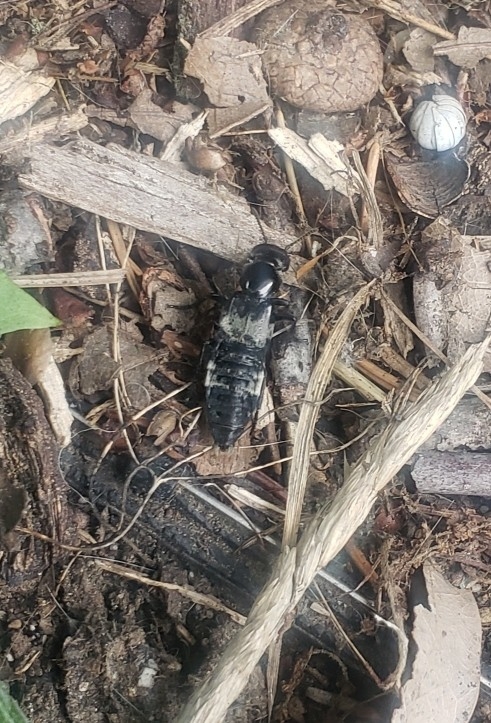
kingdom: Animalia
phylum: Arthropoda
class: Insecta
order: Coleoptera
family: Staphylinidae
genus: Creophilus
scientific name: Creophilus maxillosus
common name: Hairy rove beetle
